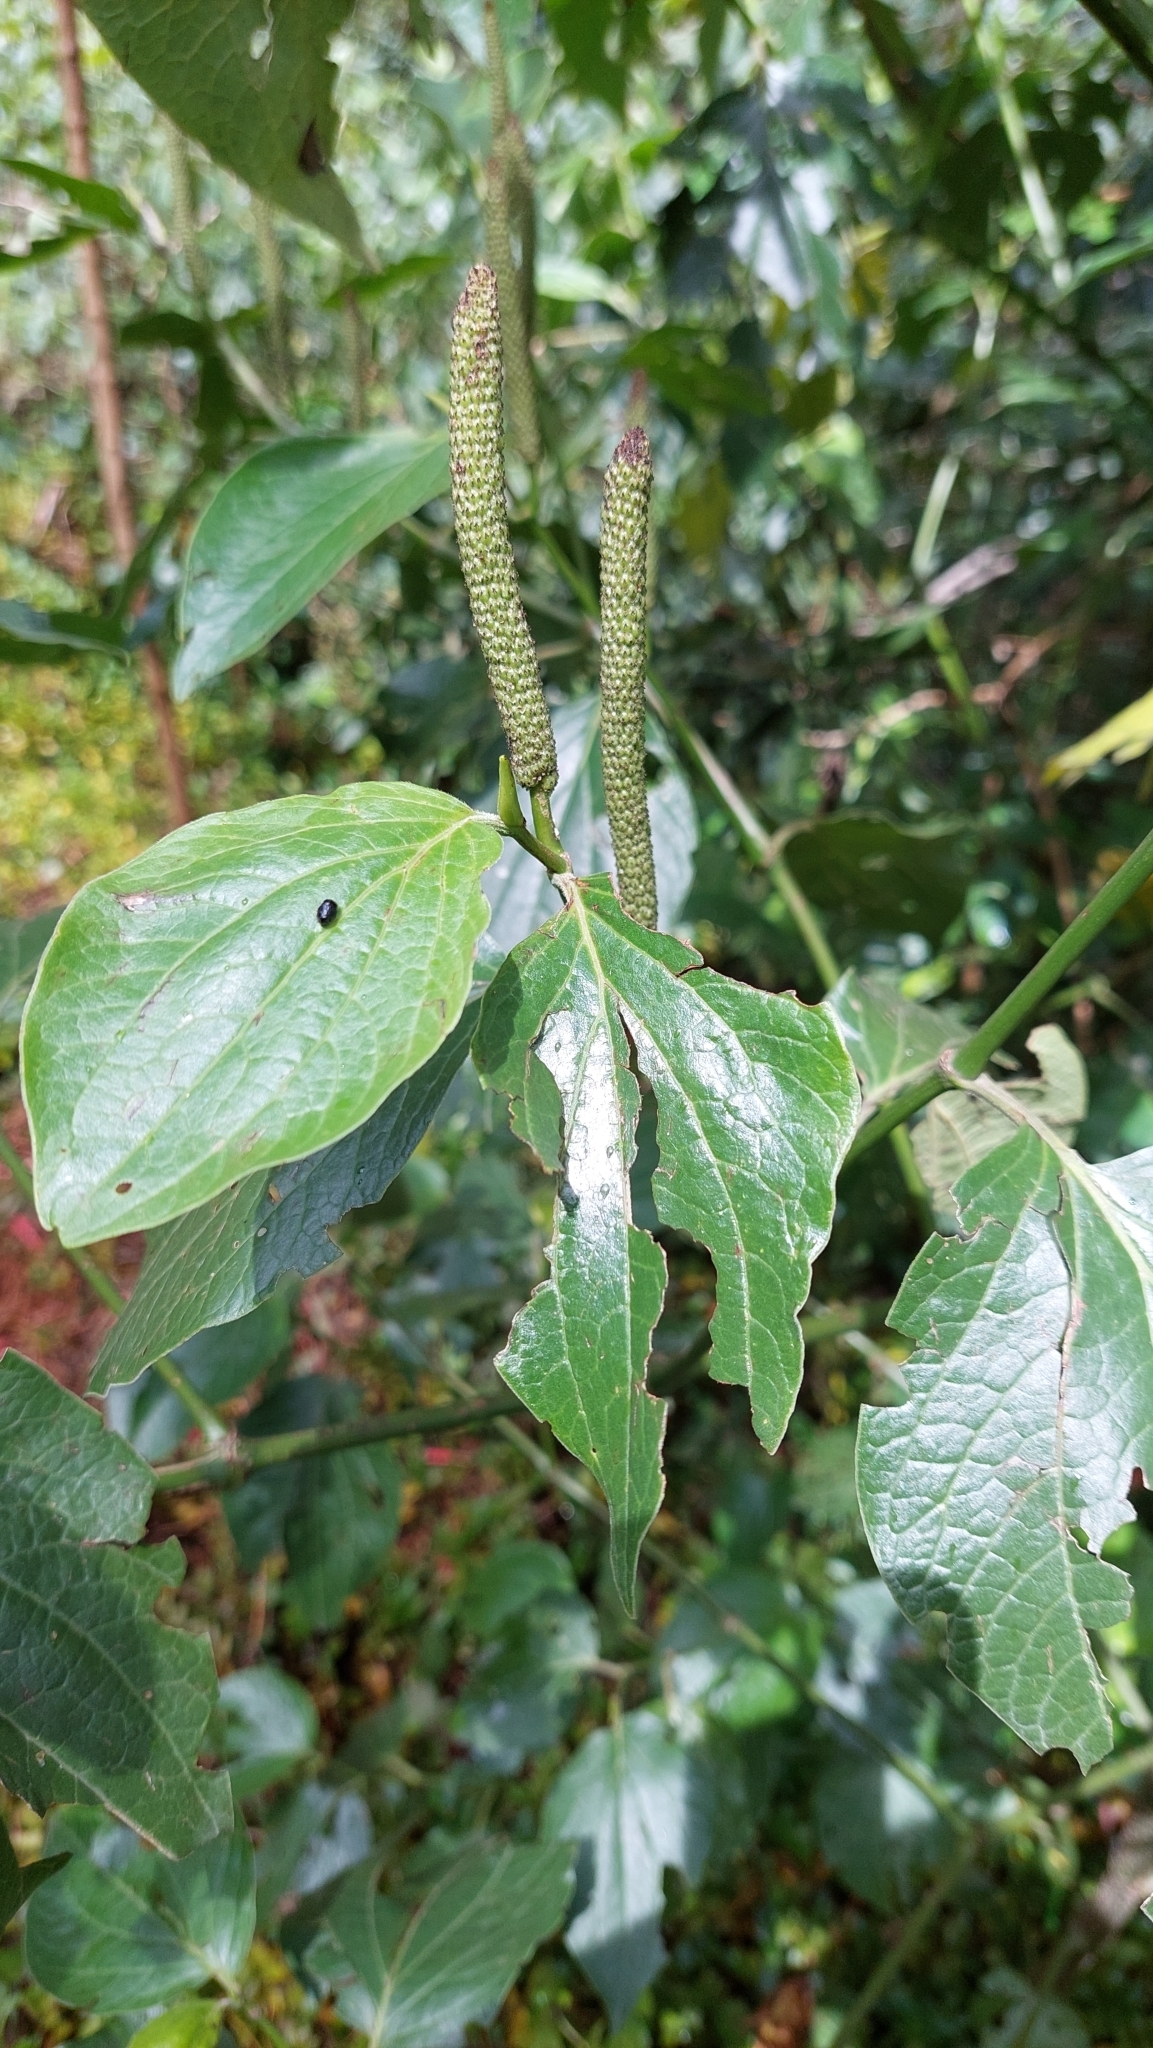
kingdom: Plantae
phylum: Tracheophyta
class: Magnoliopsida
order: Piperales
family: Piperaceae
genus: Piper
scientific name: Piper barbatum
